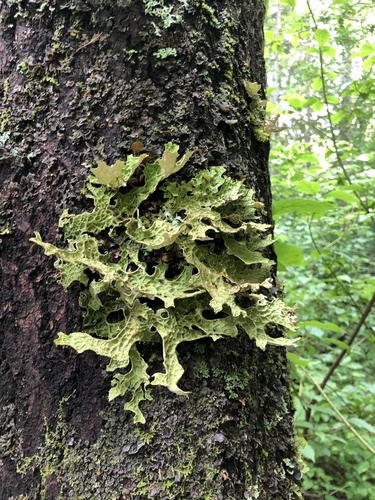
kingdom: Fungi
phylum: Ascomycota
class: Lecanoromycetes
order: Peltigerales
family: Lobariaceae
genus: Lobaria
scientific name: Lobaria pulmonaria
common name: Lungwort
